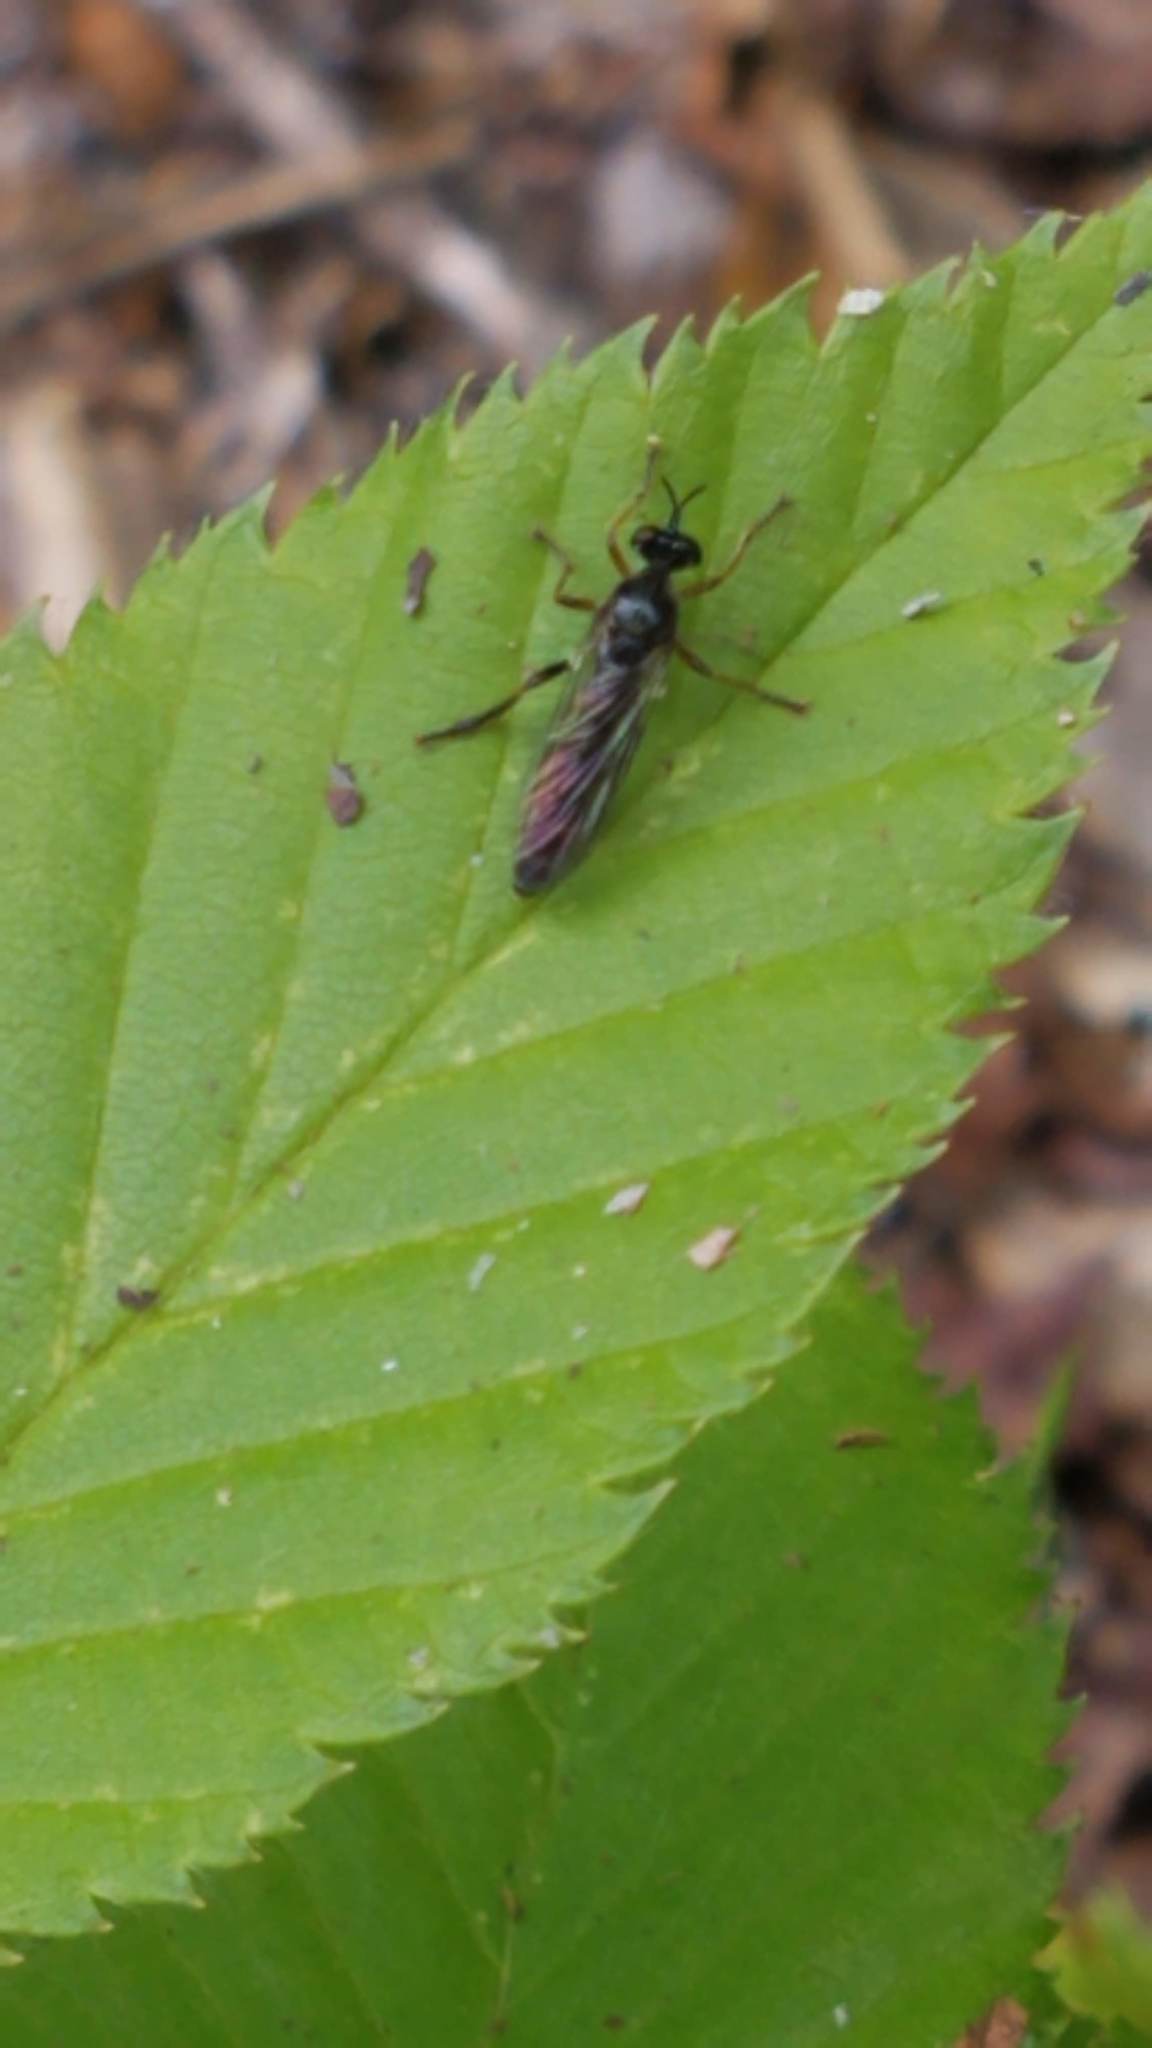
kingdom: Animalia
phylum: Arthropoda
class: Insecta
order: Diptera
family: Asilidae
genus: Dioctria
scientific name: Dioctria hyalipennis
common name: Stripe-legged robberfly
